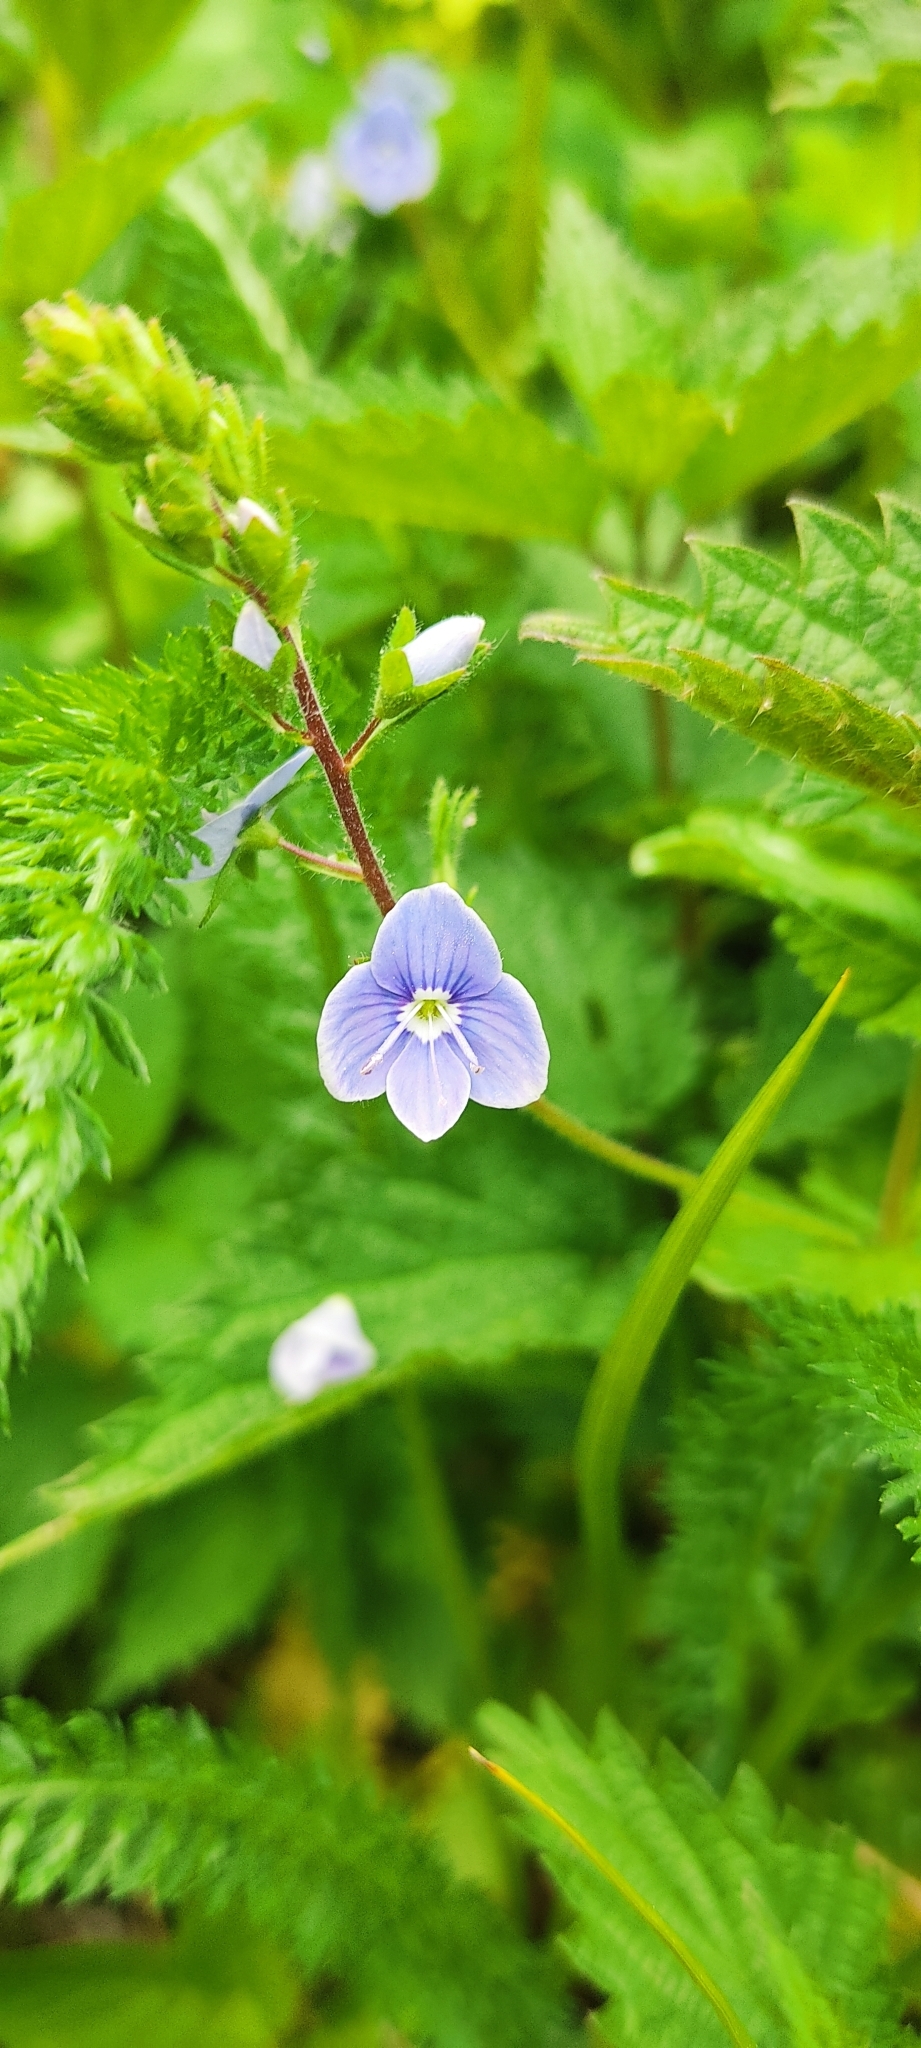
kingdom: Plantae
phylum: Tracheophyta
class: Magnoliopsida
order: Lamiales
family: Plantaginaceae
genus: Veronica
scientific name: Veronica chamaedrys
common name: Germander speedwell
